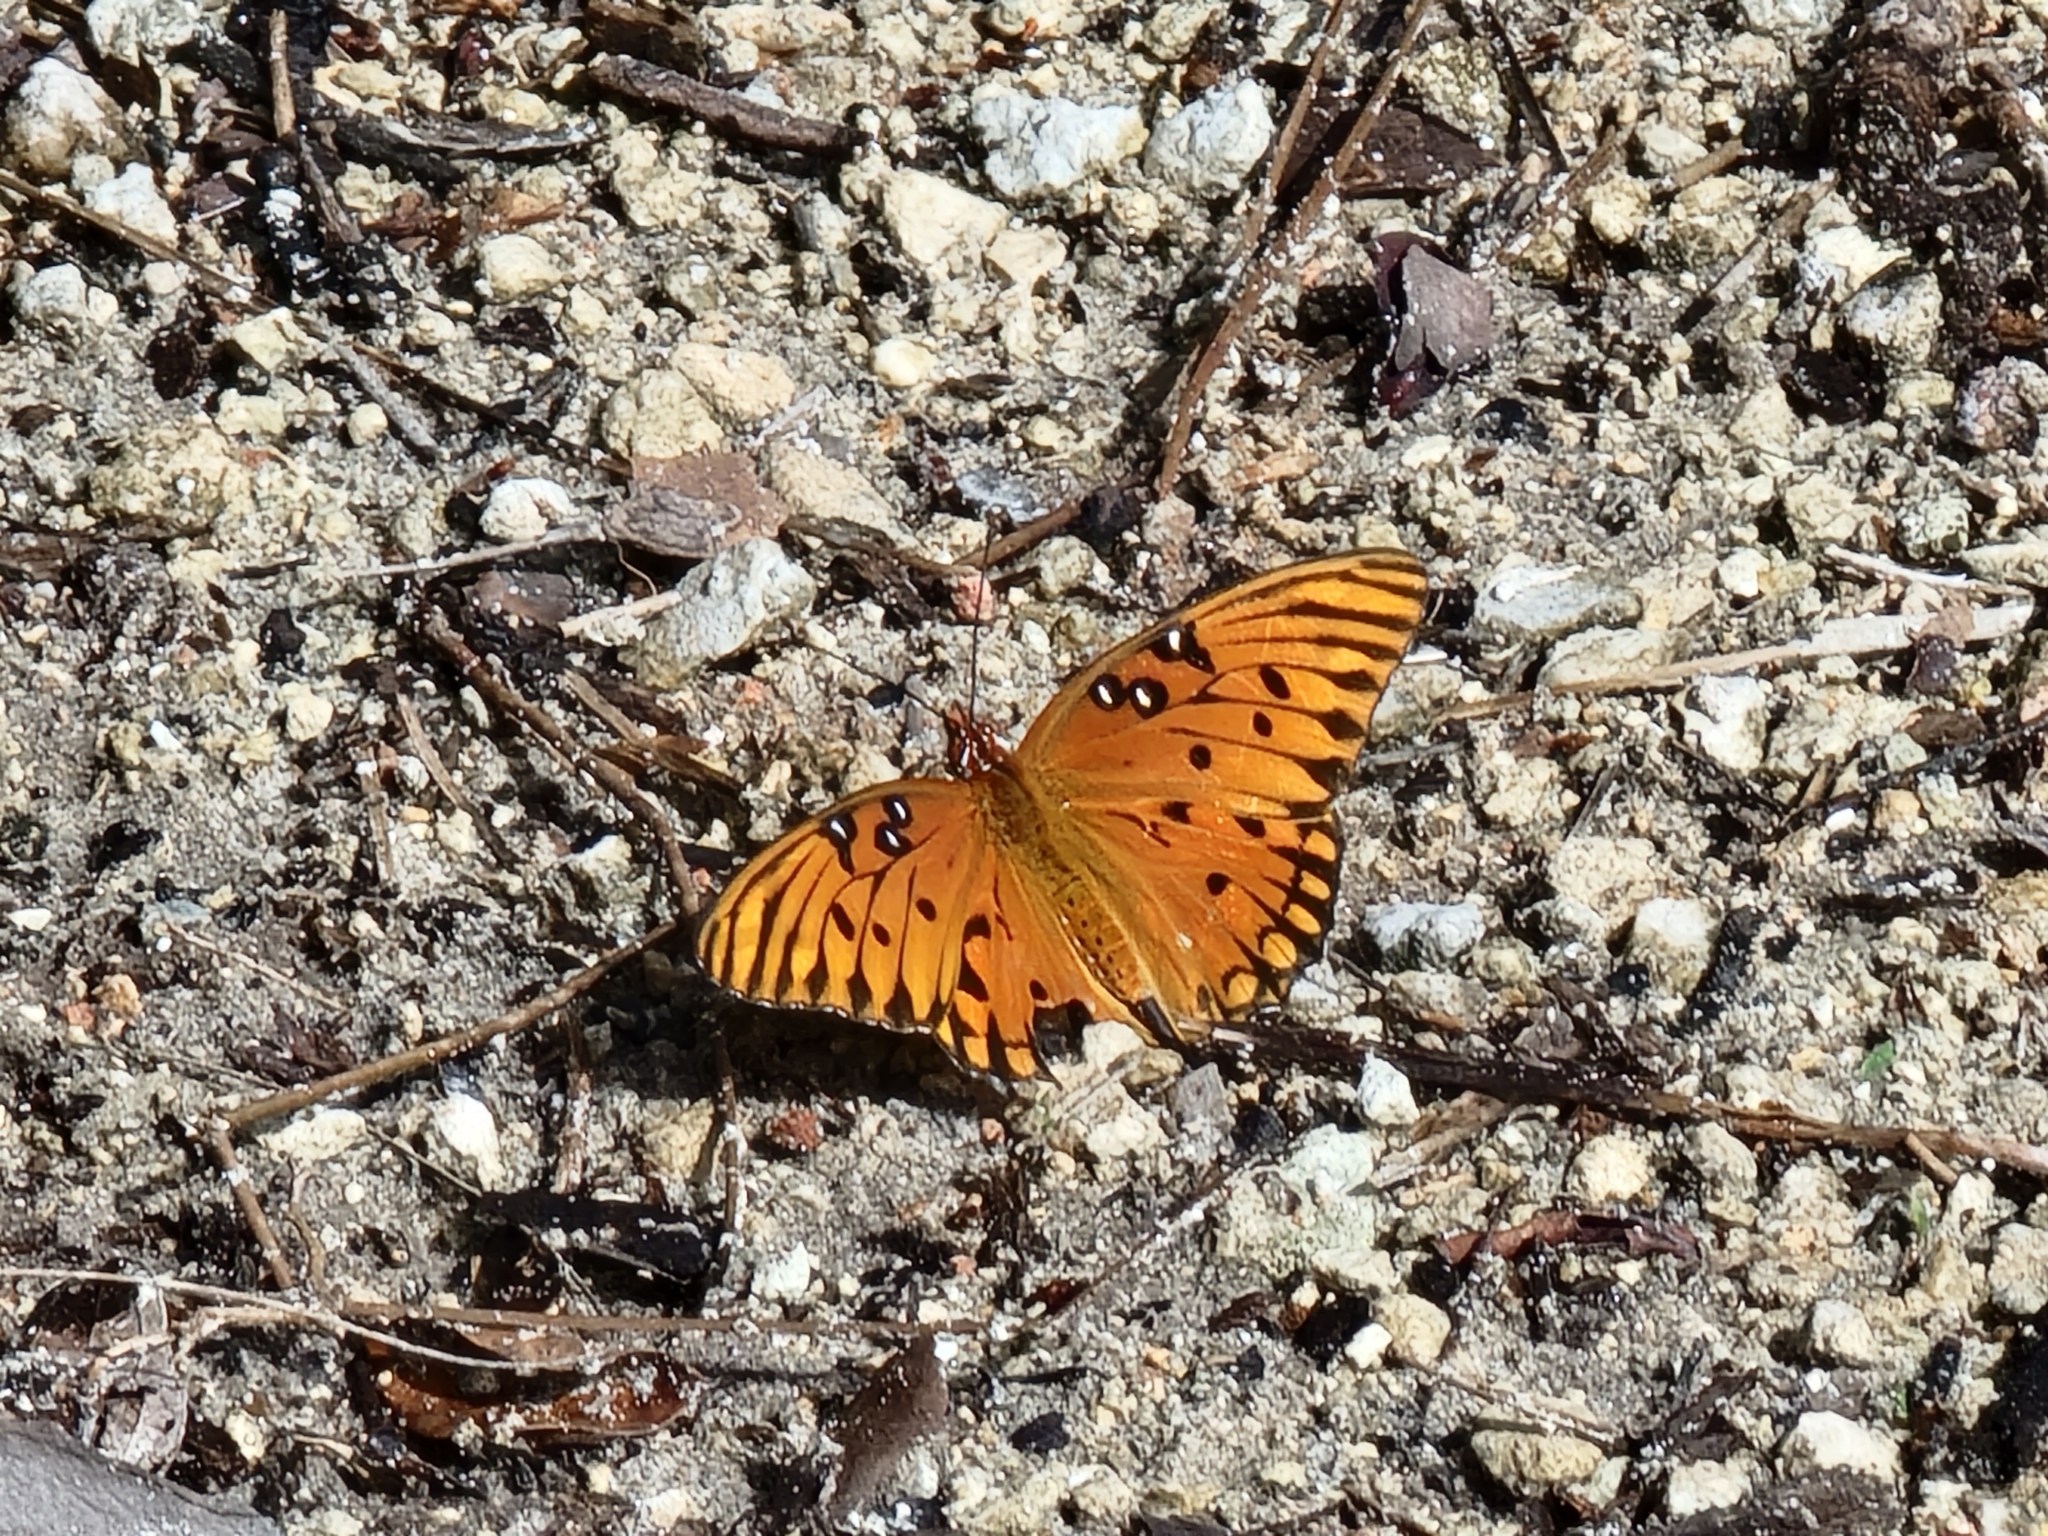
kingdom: Animalia
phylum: Arthropoda
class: Insecta
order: Lepidoptera
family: Nymphalidae
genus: Dione
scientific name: Dione vanillae
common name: Gulf fritillary
